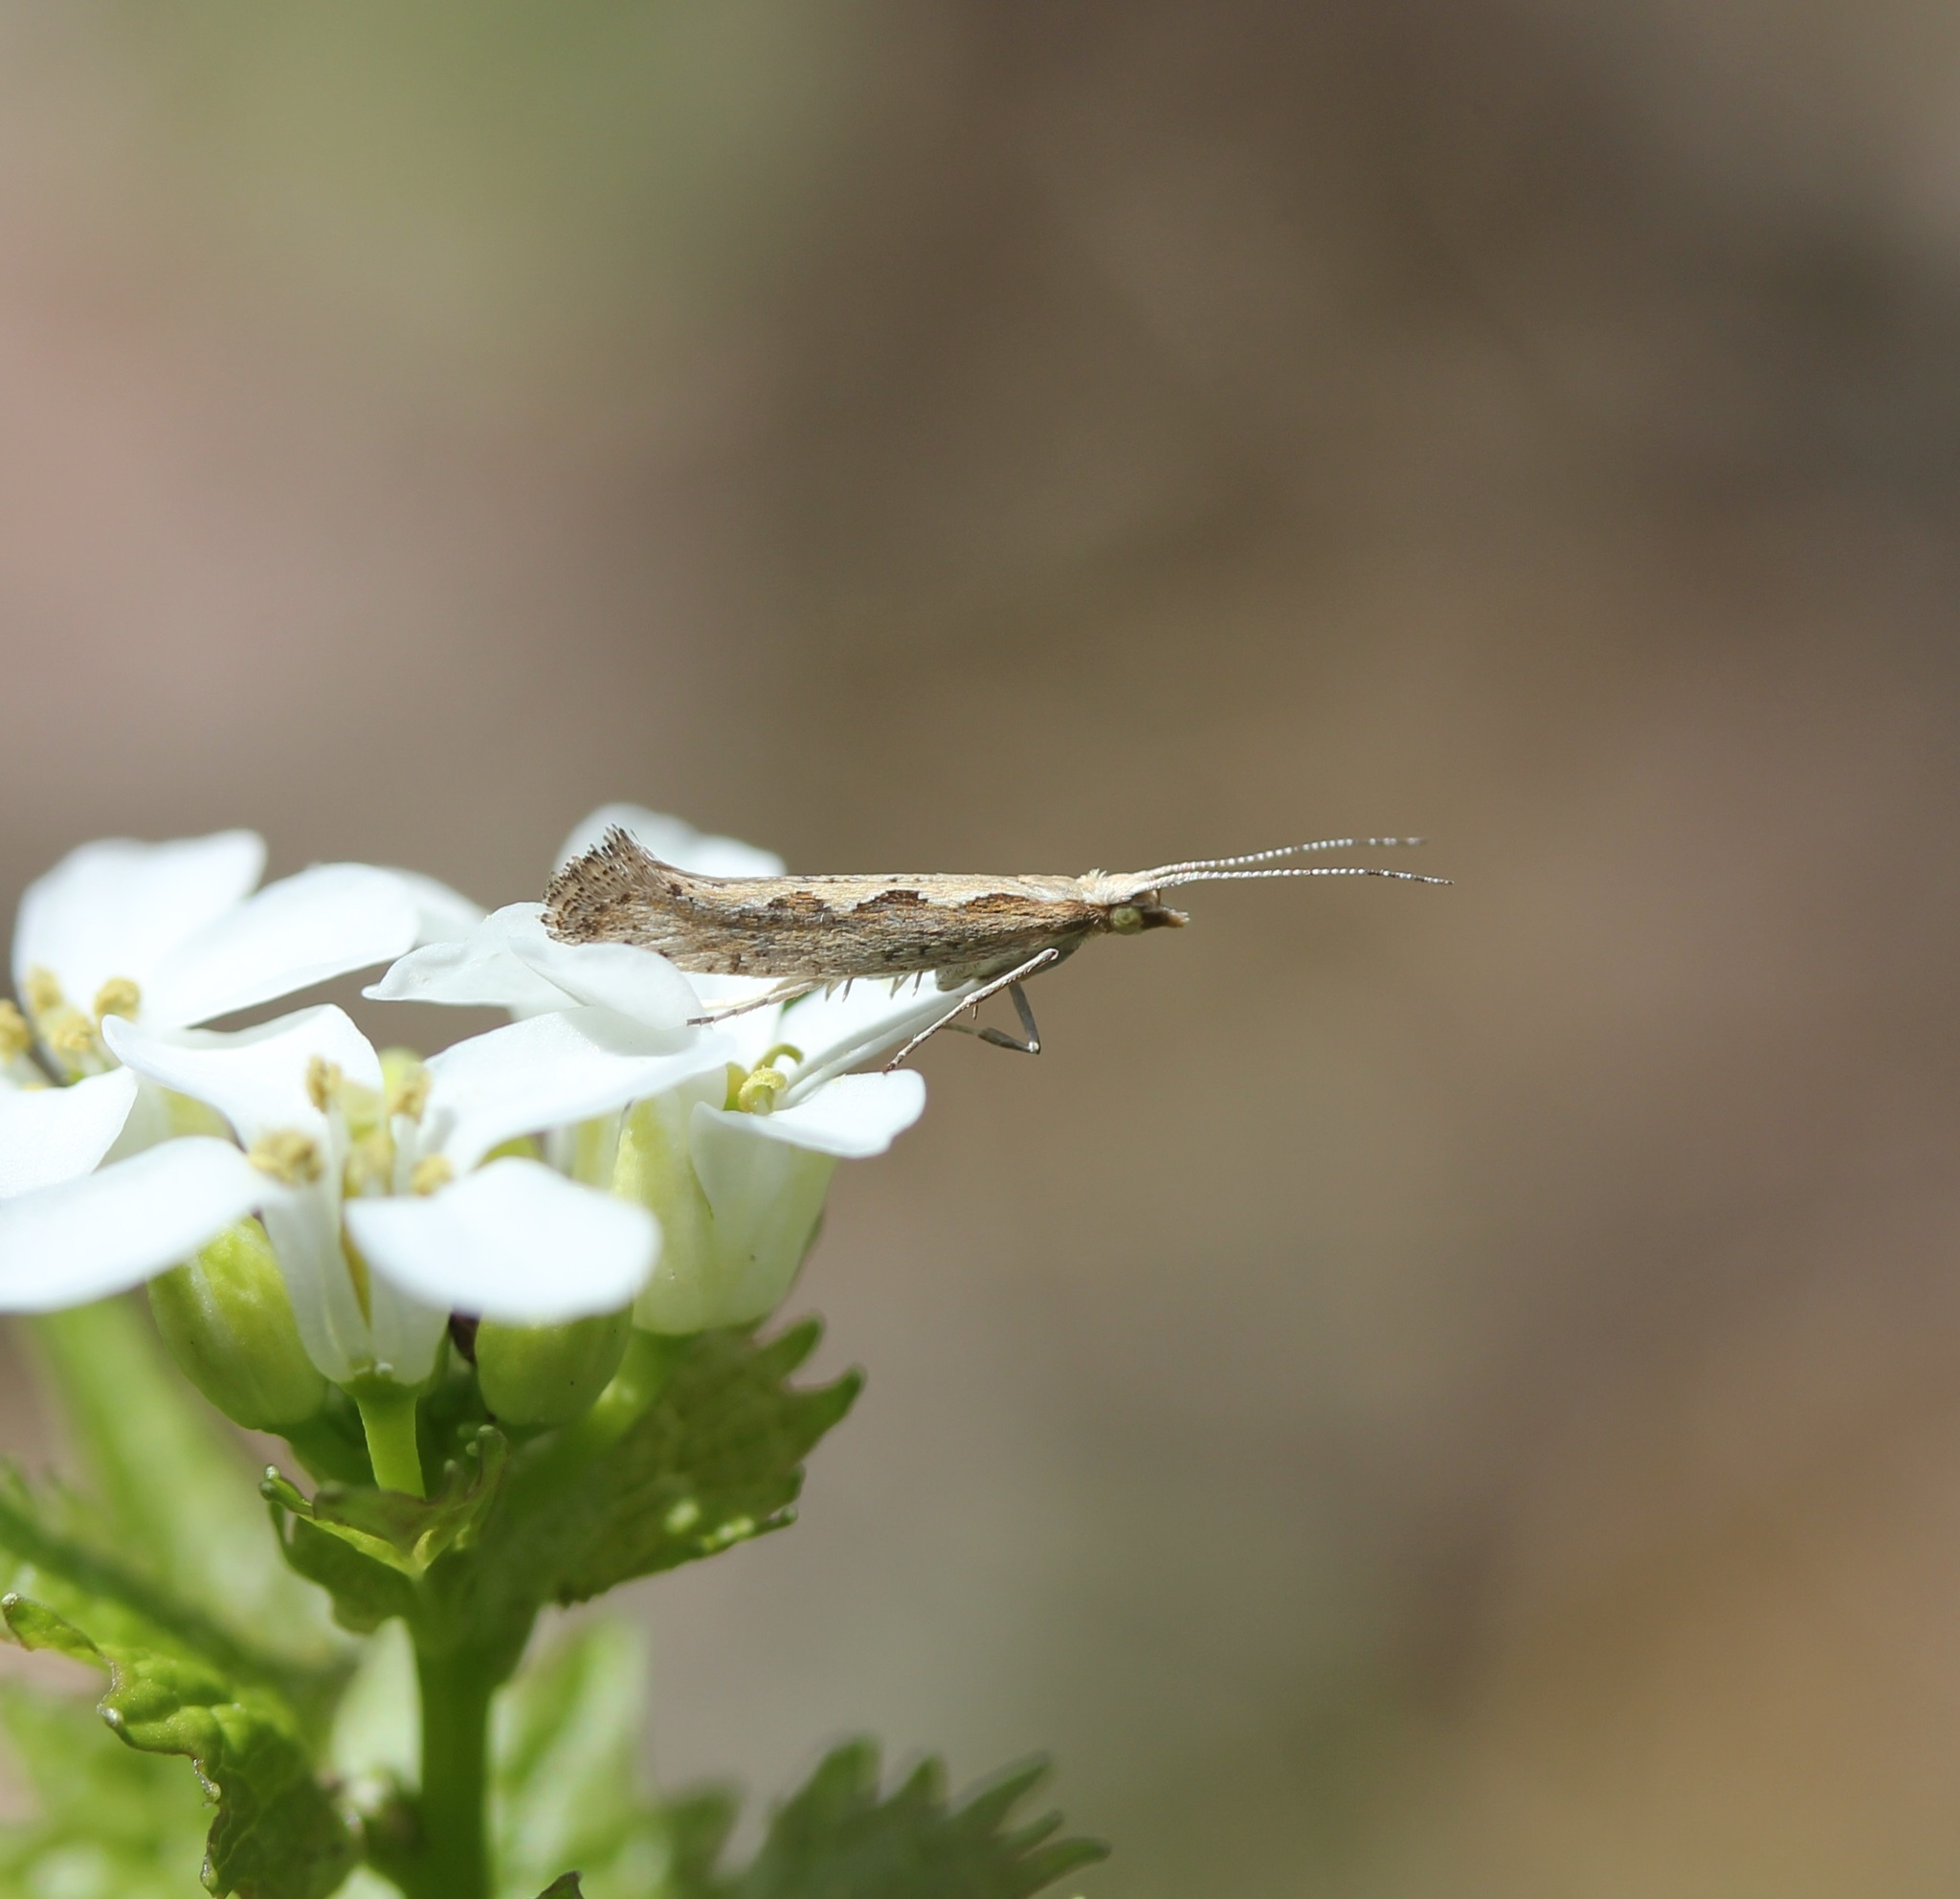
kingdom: Animalia
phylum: Arthropoda
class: Insecta
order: Lepidoptera
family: Plutellidae
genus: Plutella
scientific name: Plutella xylostella
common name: Diamond-back moth
